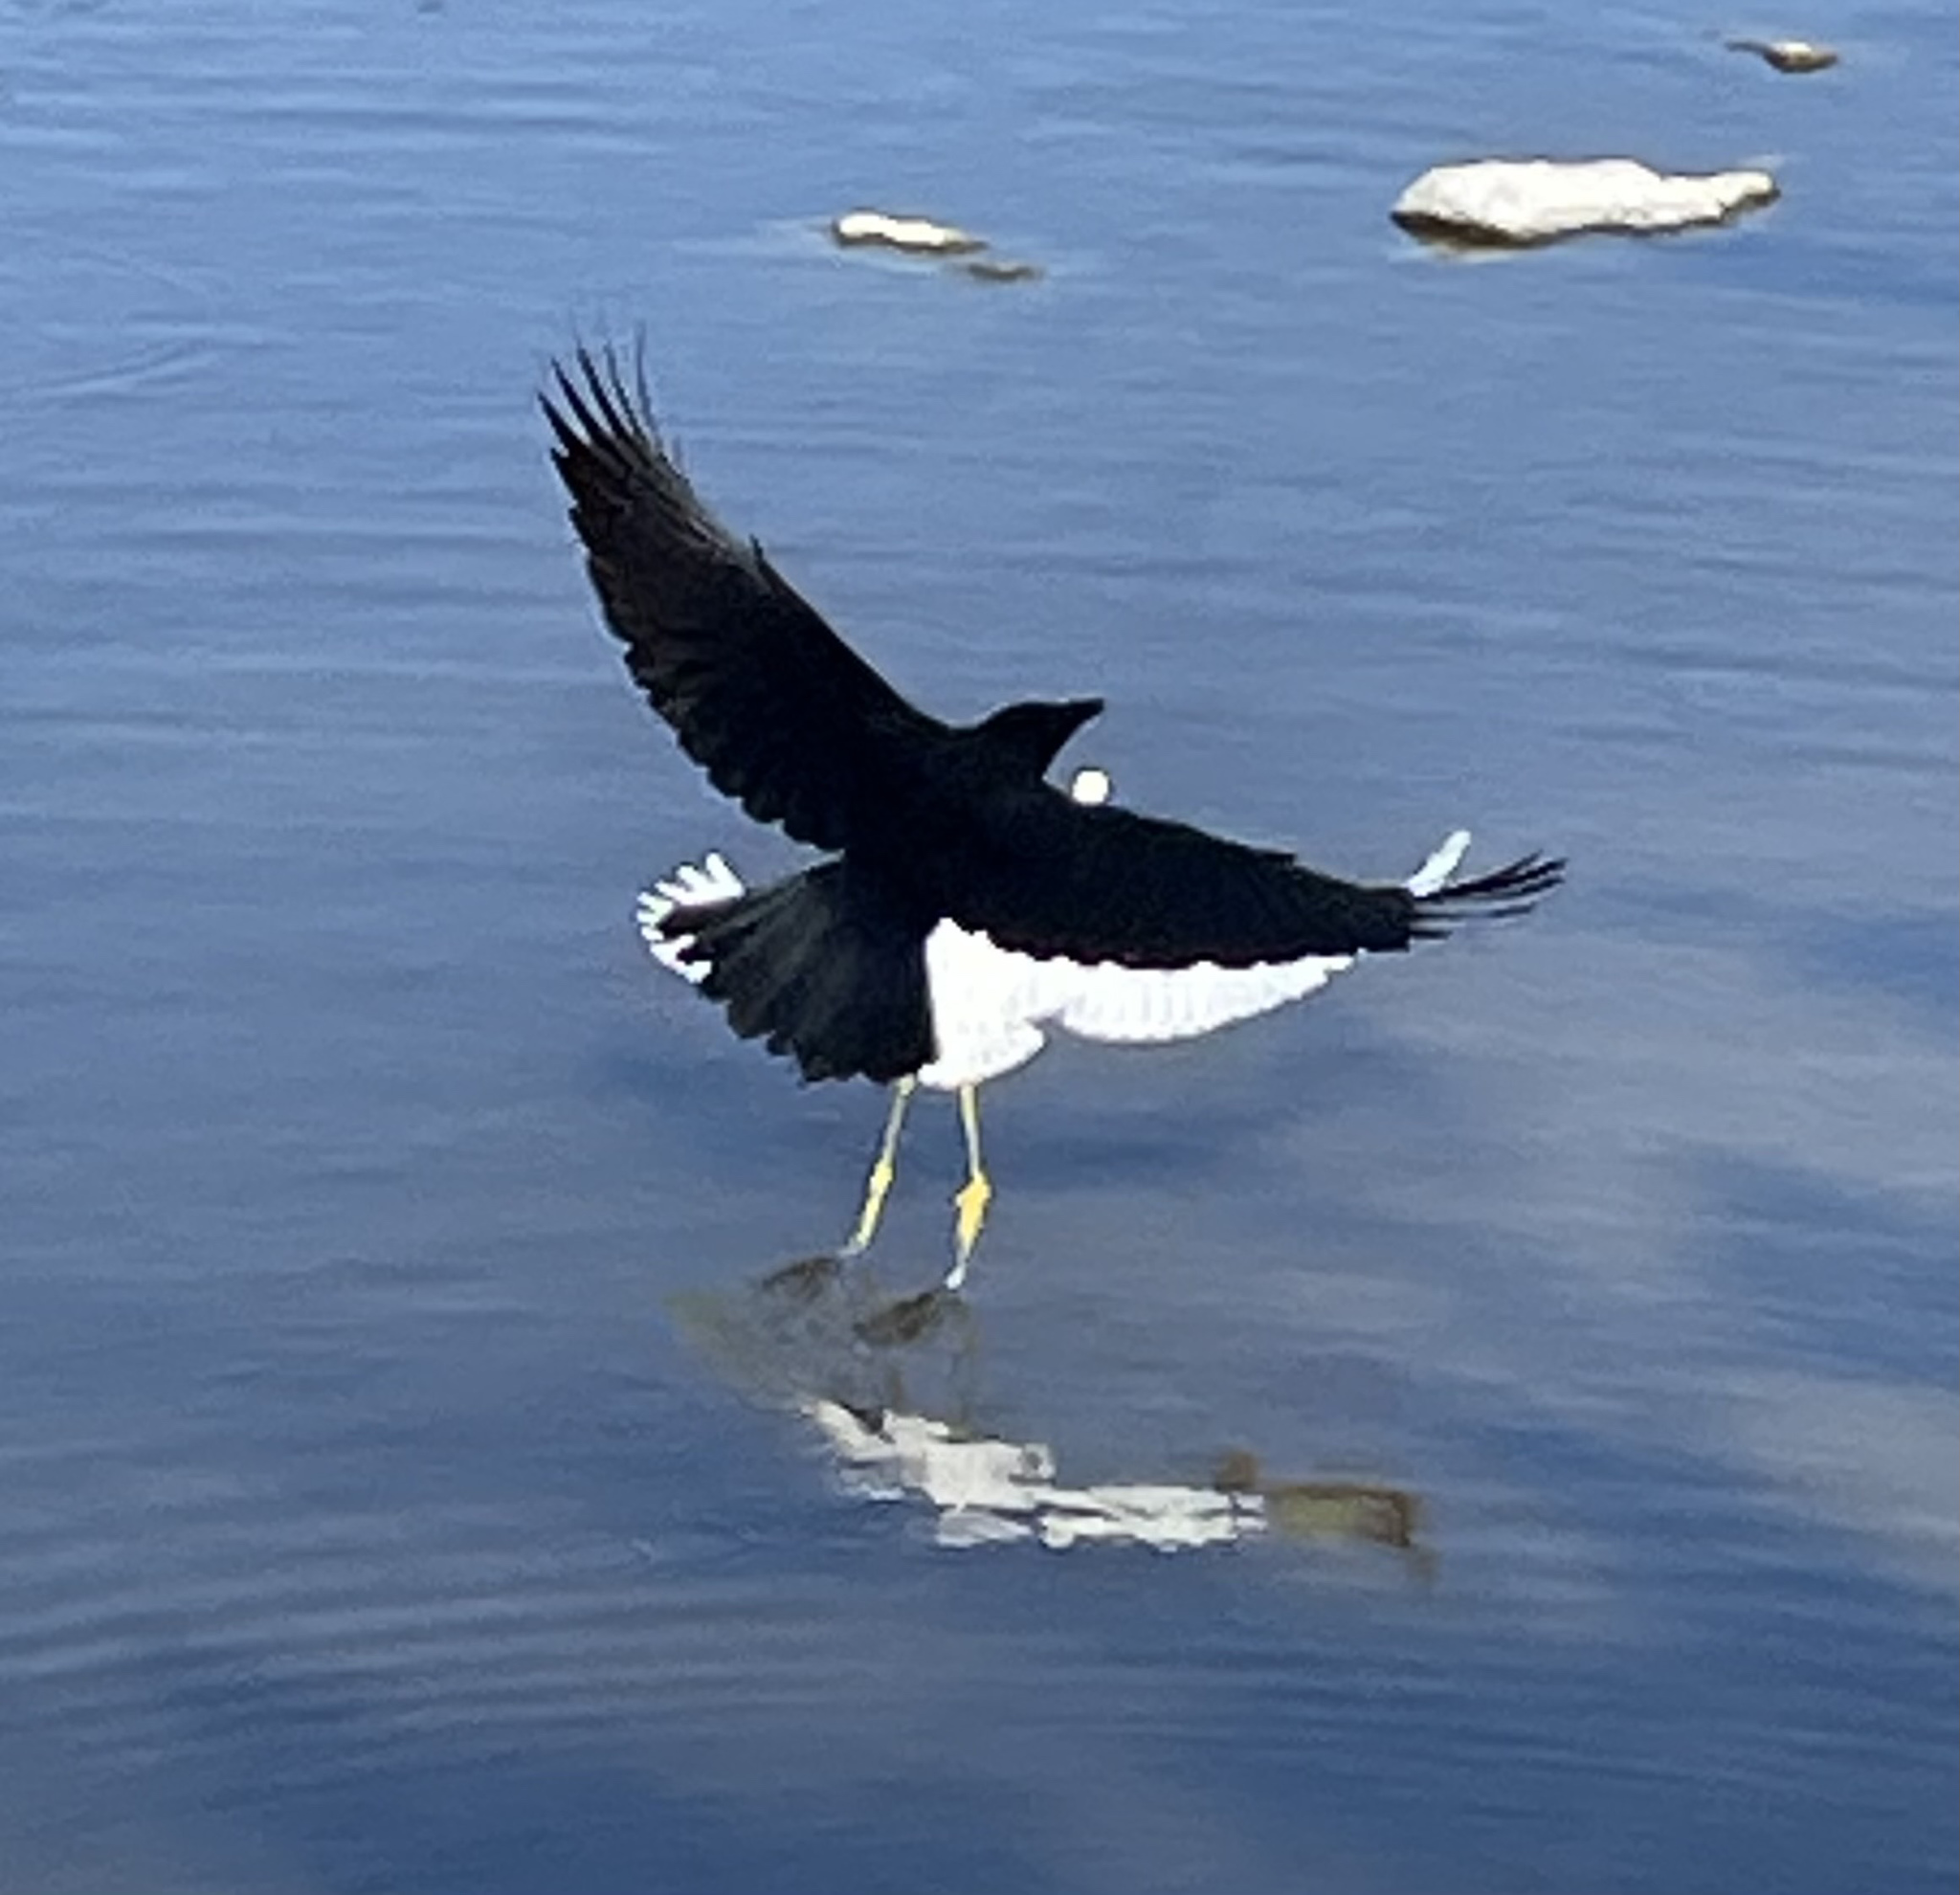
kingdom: Animalia
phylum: Chordata
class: Aves
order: Passeriformes
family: Corvidae
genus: Corvus
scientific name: Corvus brachyrhynchos
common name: American crow
